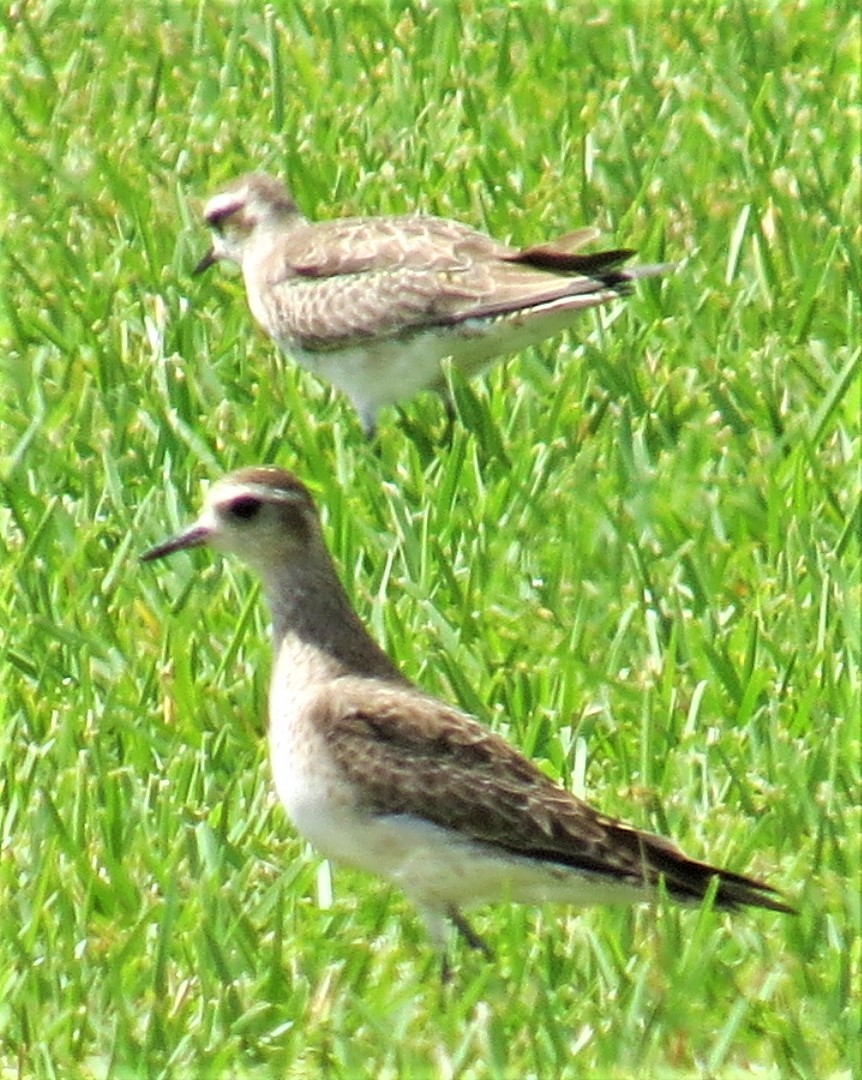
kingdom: Animalia
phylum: Chordata
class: Aves
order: Charadriiformes
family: Charadriidae
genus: Pluvialis
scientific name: Pluvialis dominica
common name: American golden plover
